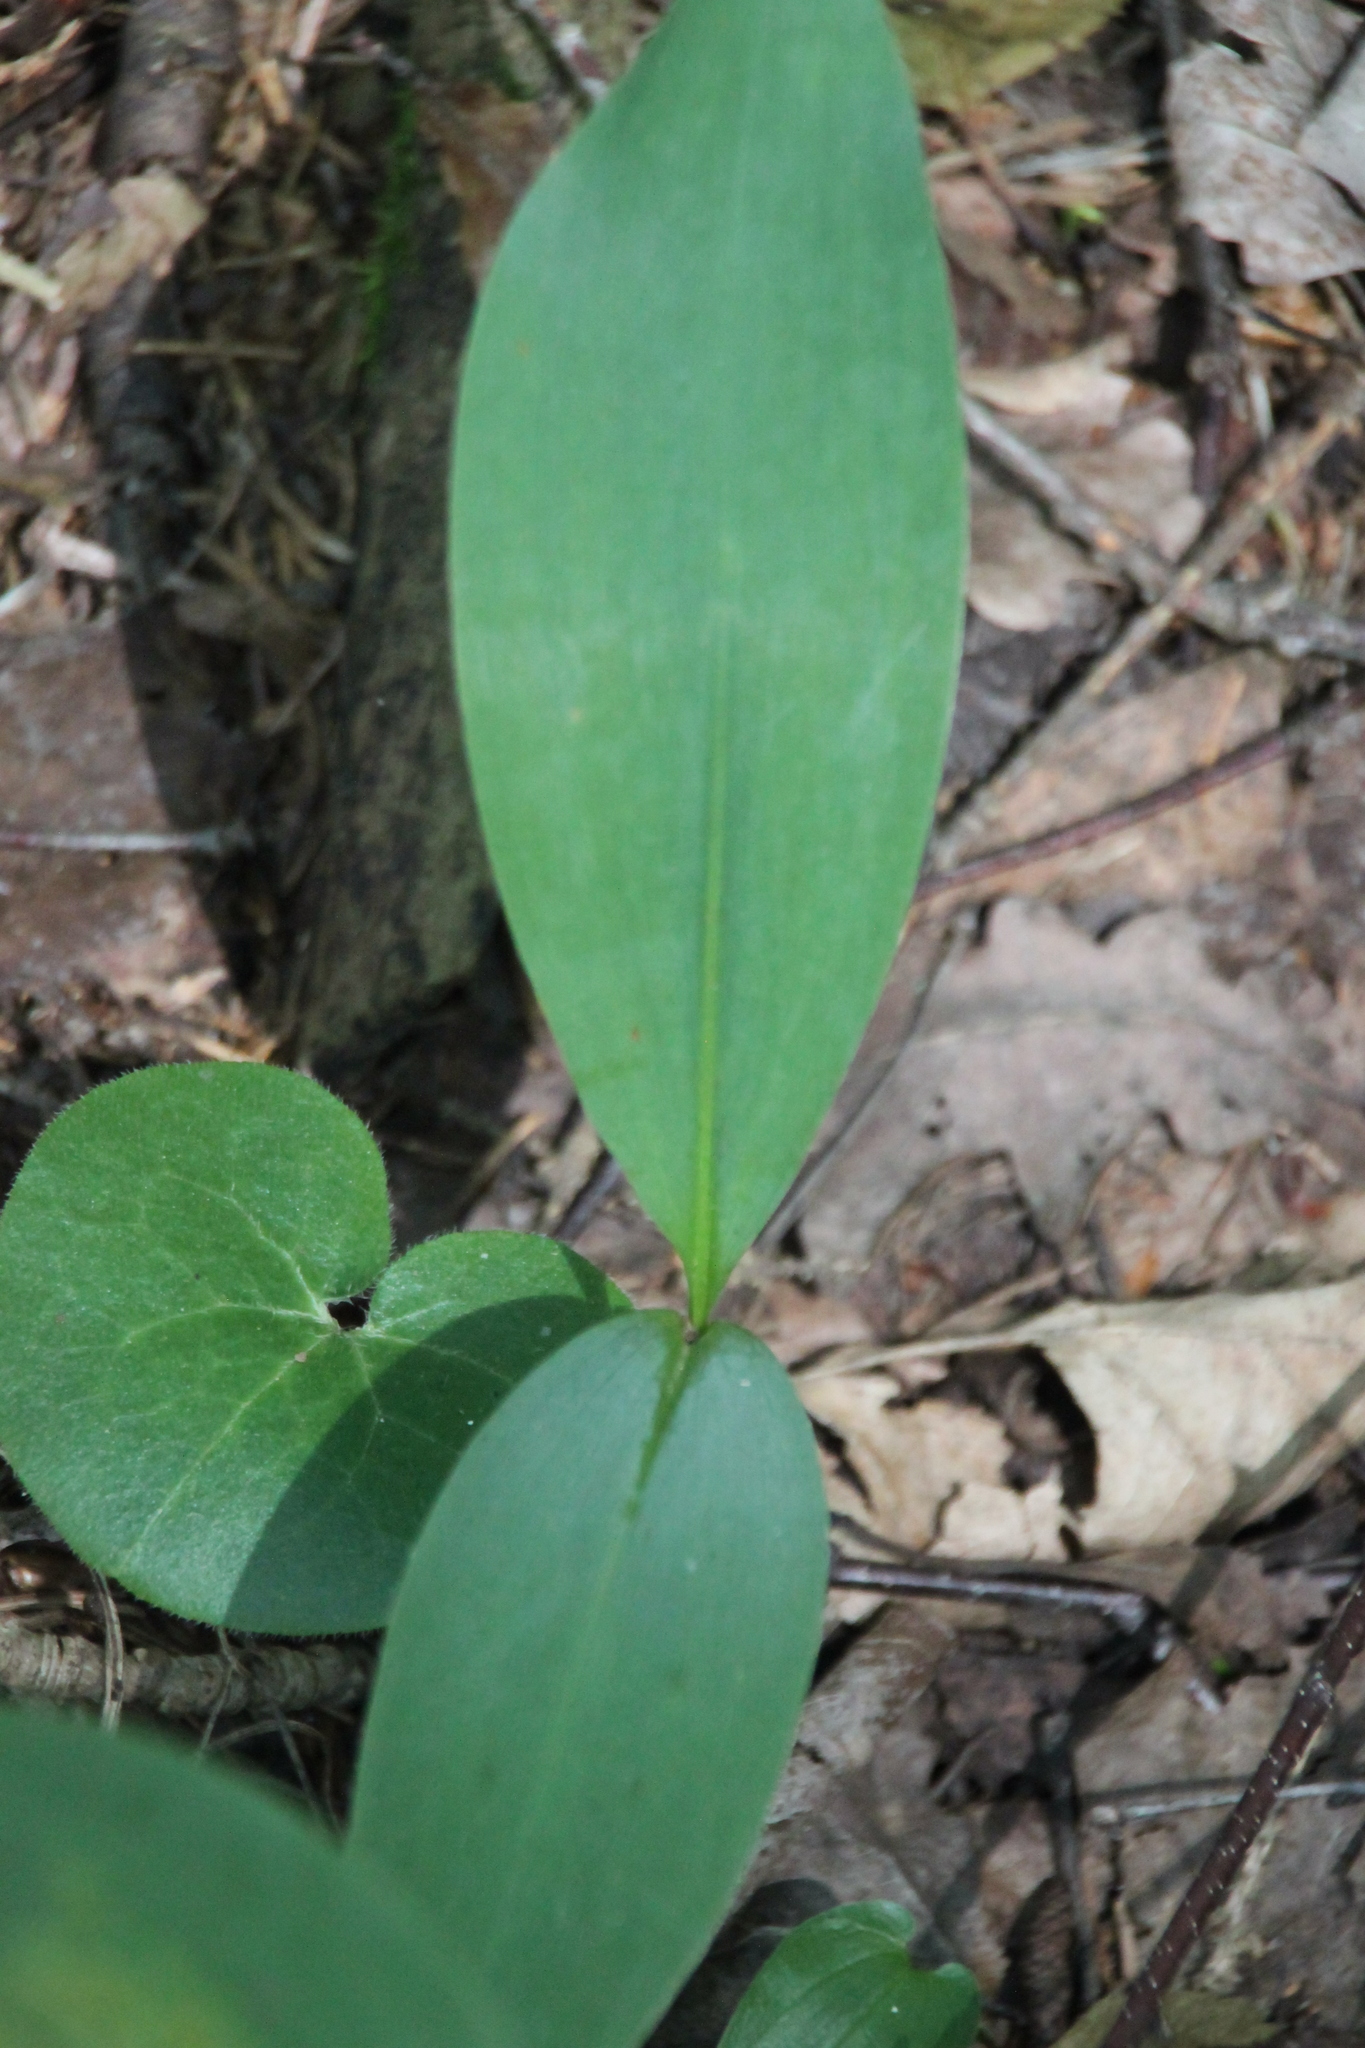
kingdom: Plantae
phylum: Tracheophyta
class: Liliopsida
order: Asparagales
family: Asparagaceae
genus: Convallaria
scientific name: Convallaria majalis
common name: Lily-of-the-valley
